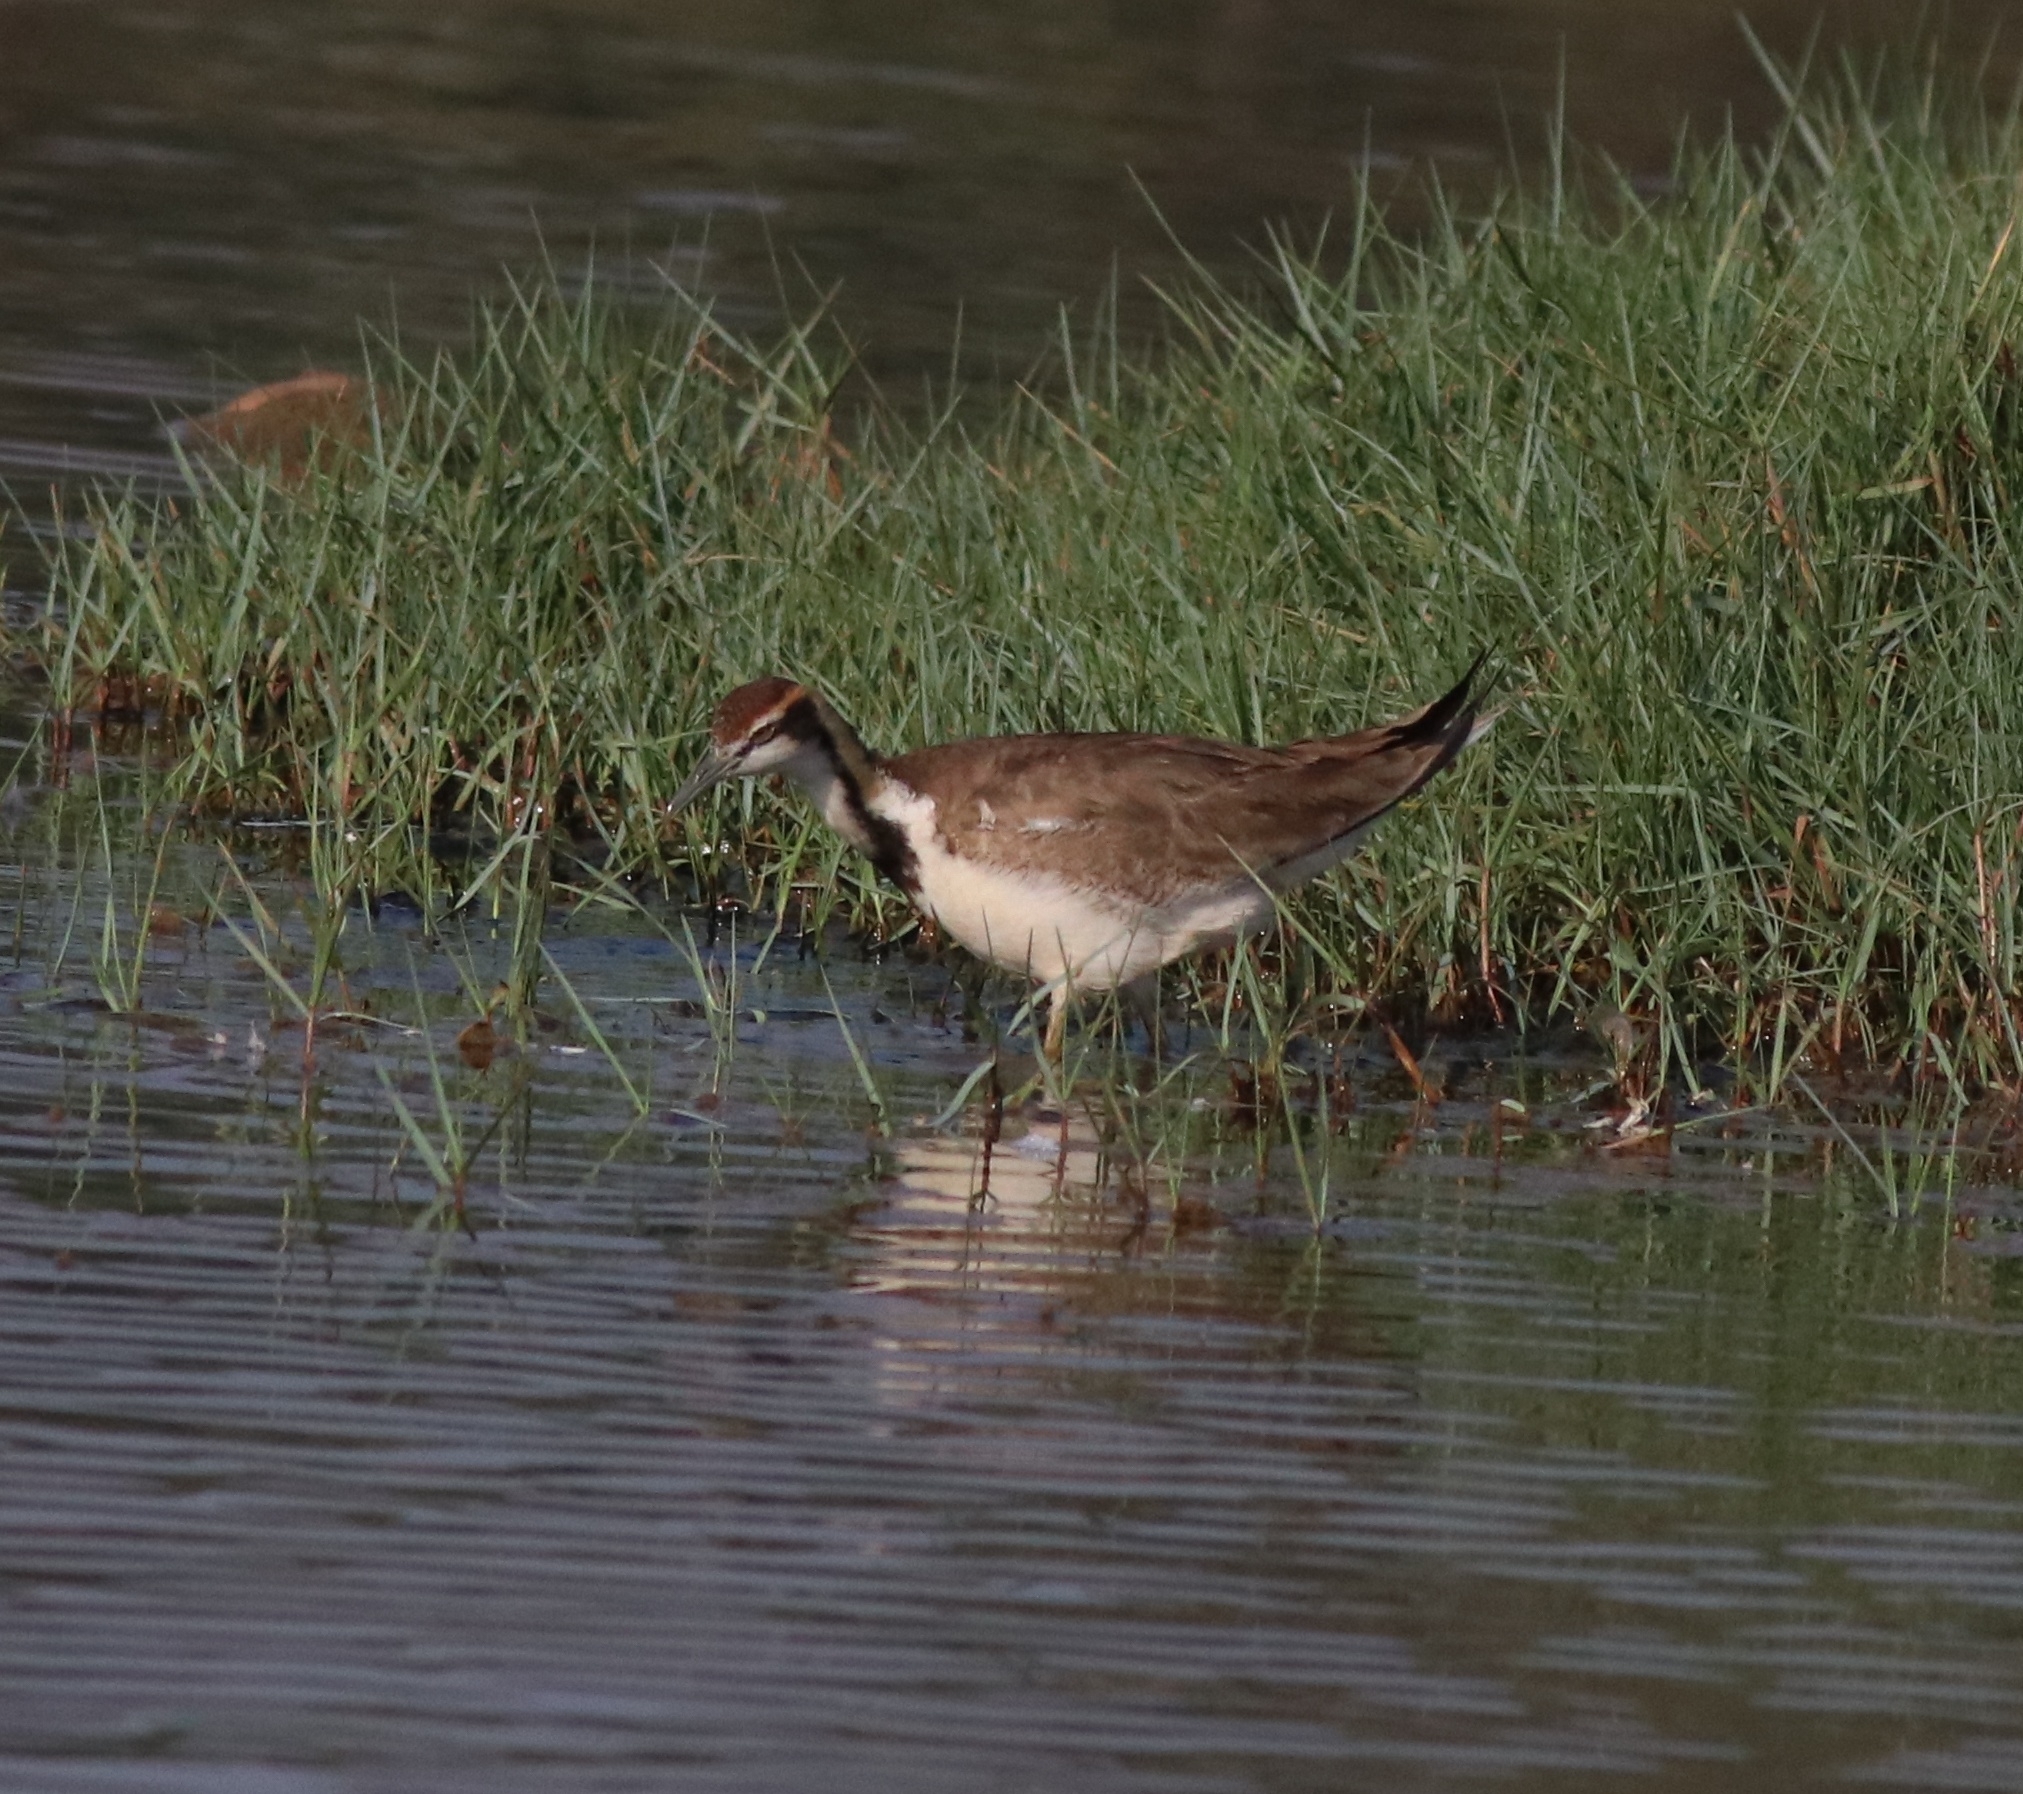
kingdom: Animalia
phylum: Chordata
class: Aves
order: Charadriiformes
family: Jacanidae
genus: Hydrophasianus
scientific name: Hydrophasianus chirurgus
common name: Pheasant-tailed jacana
